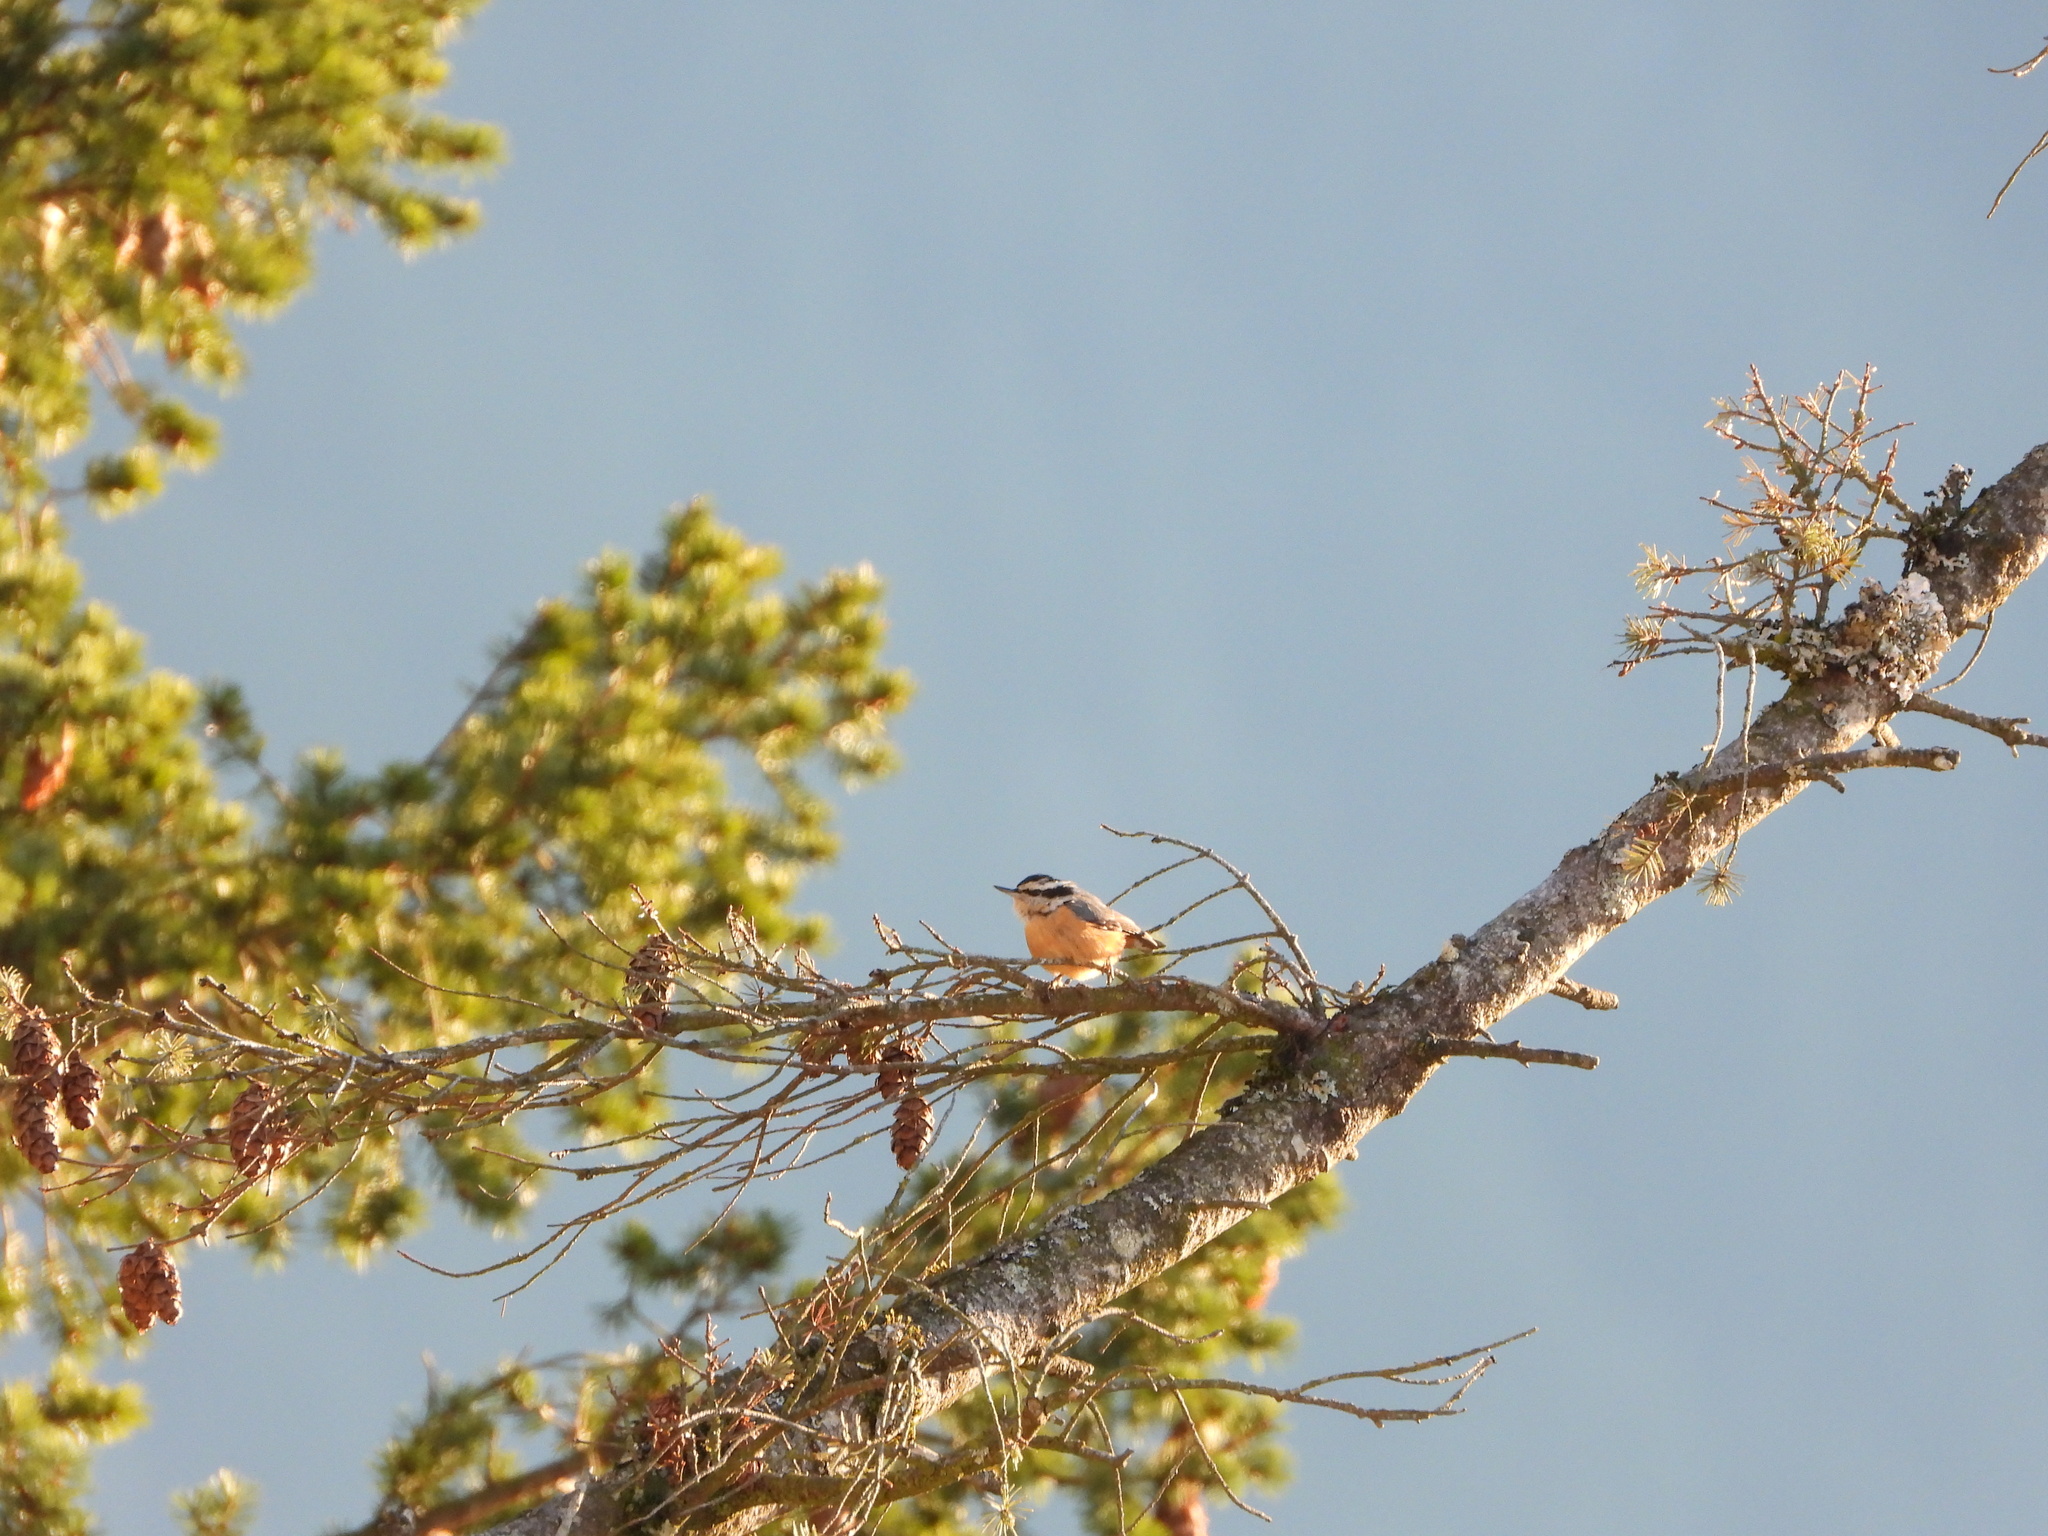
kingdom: Animalia
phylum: Chordata
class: Aves
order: Passeriformes
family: Sittidae
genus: Sitta
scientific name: Sitta canadensis
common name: Red-breasted nuthatch
